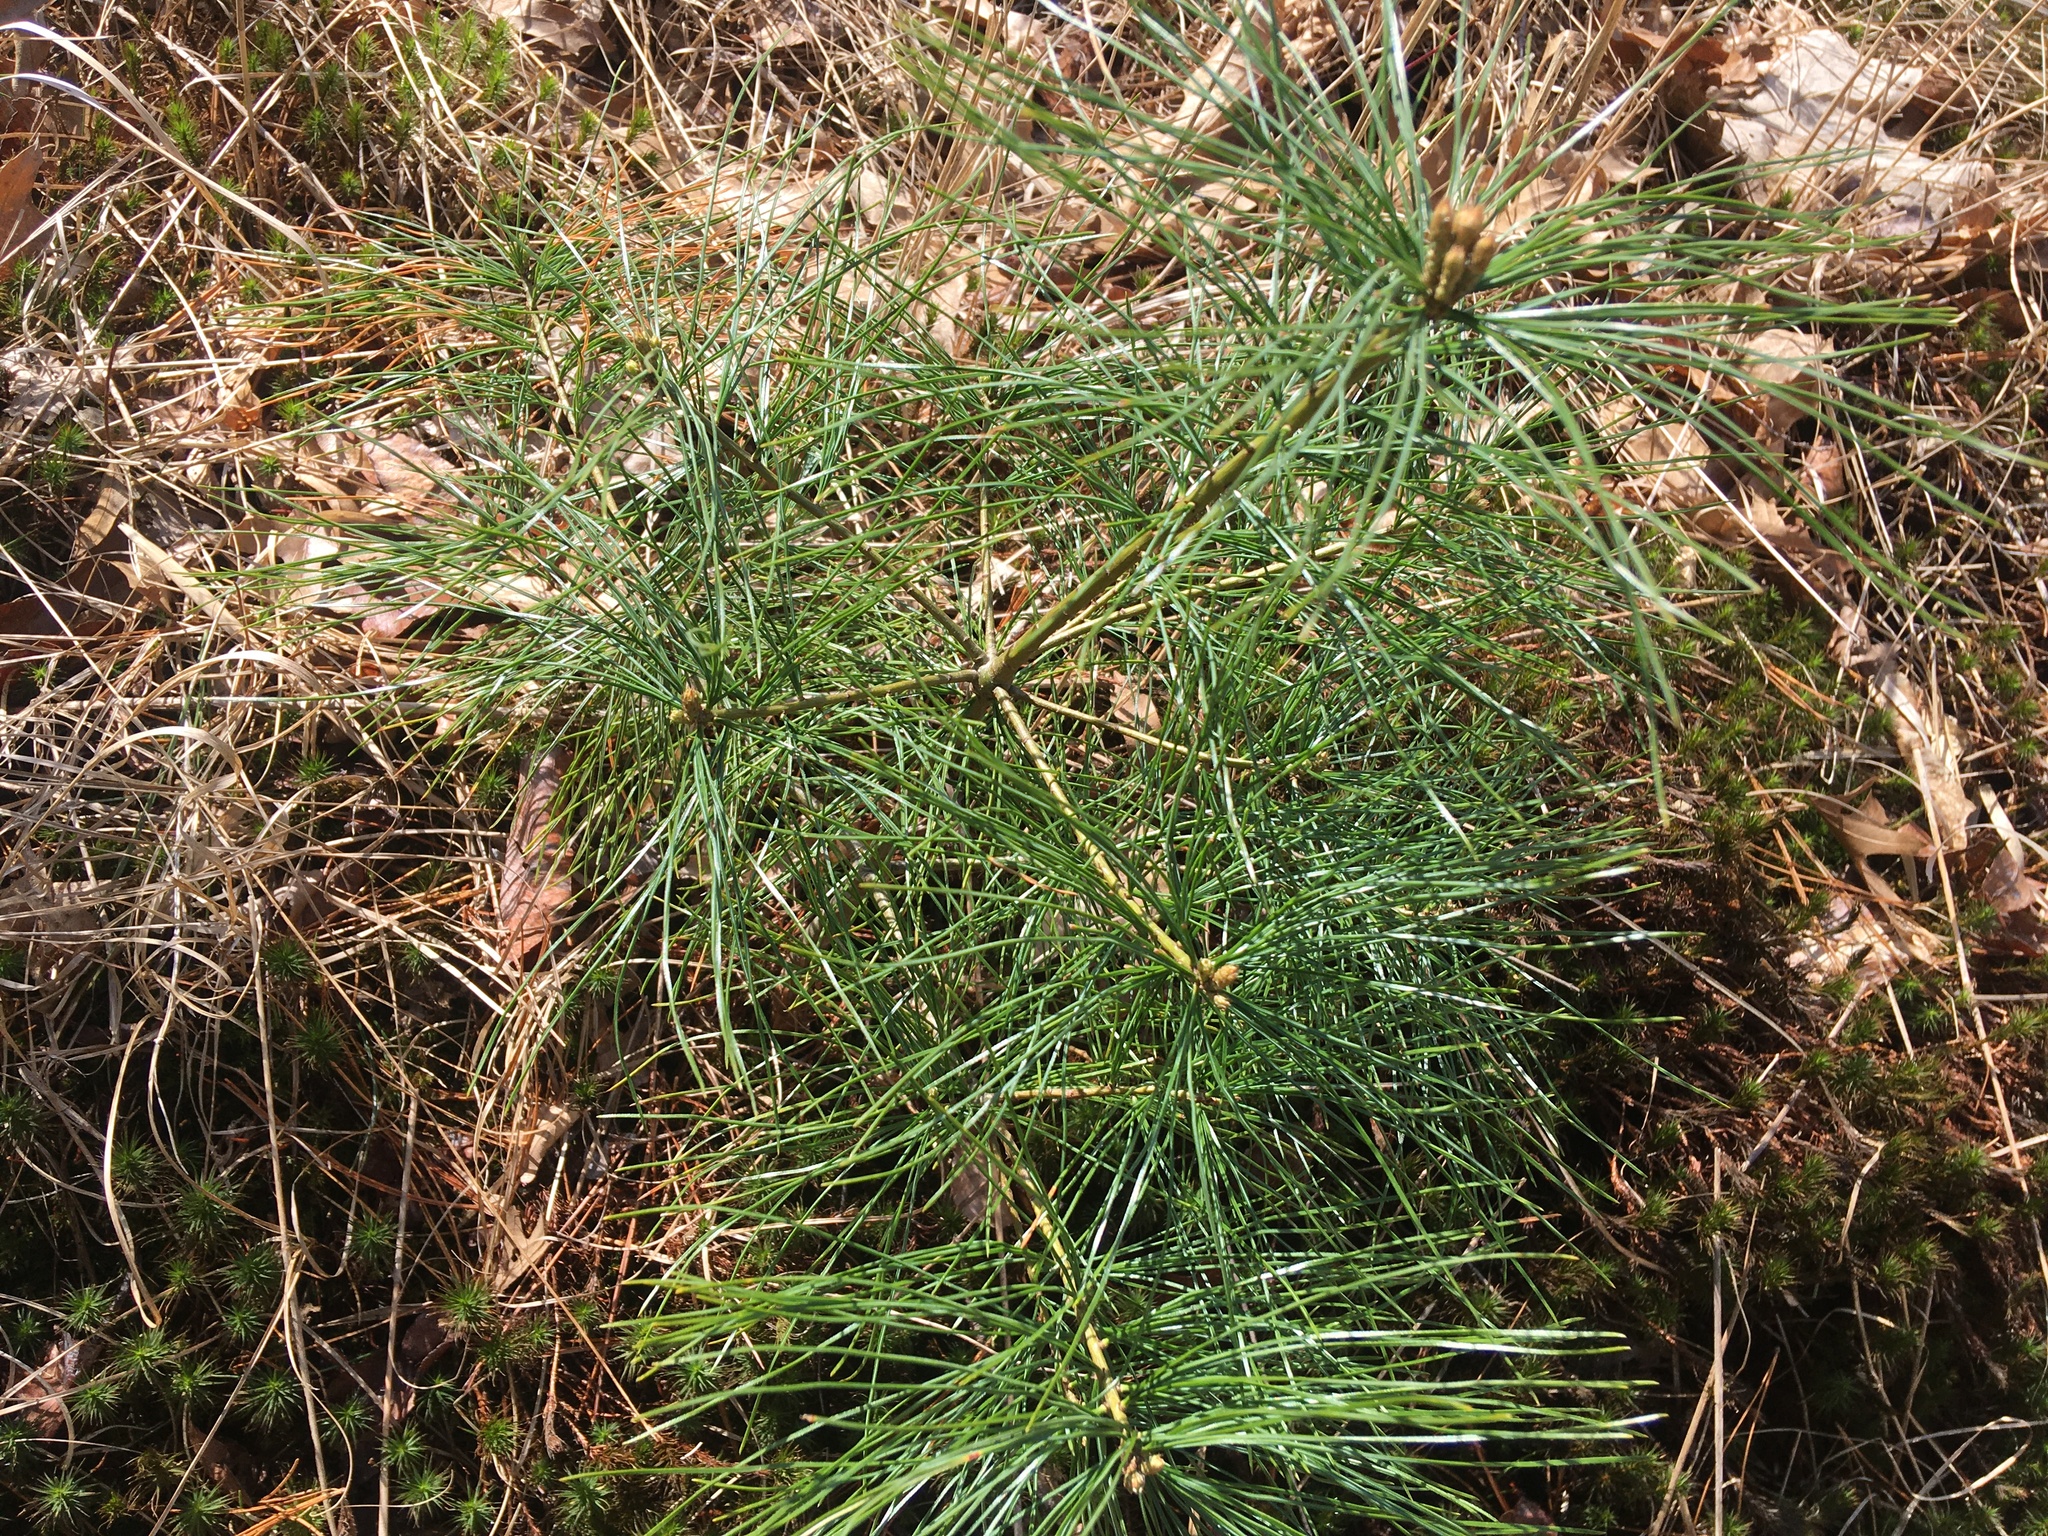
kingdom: Plantae
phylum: Tracheophyta
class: Pinopsida
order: Pinales
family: Pinaceae
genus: Pinus
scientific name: Pinus strobus
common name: Weymouth pine
